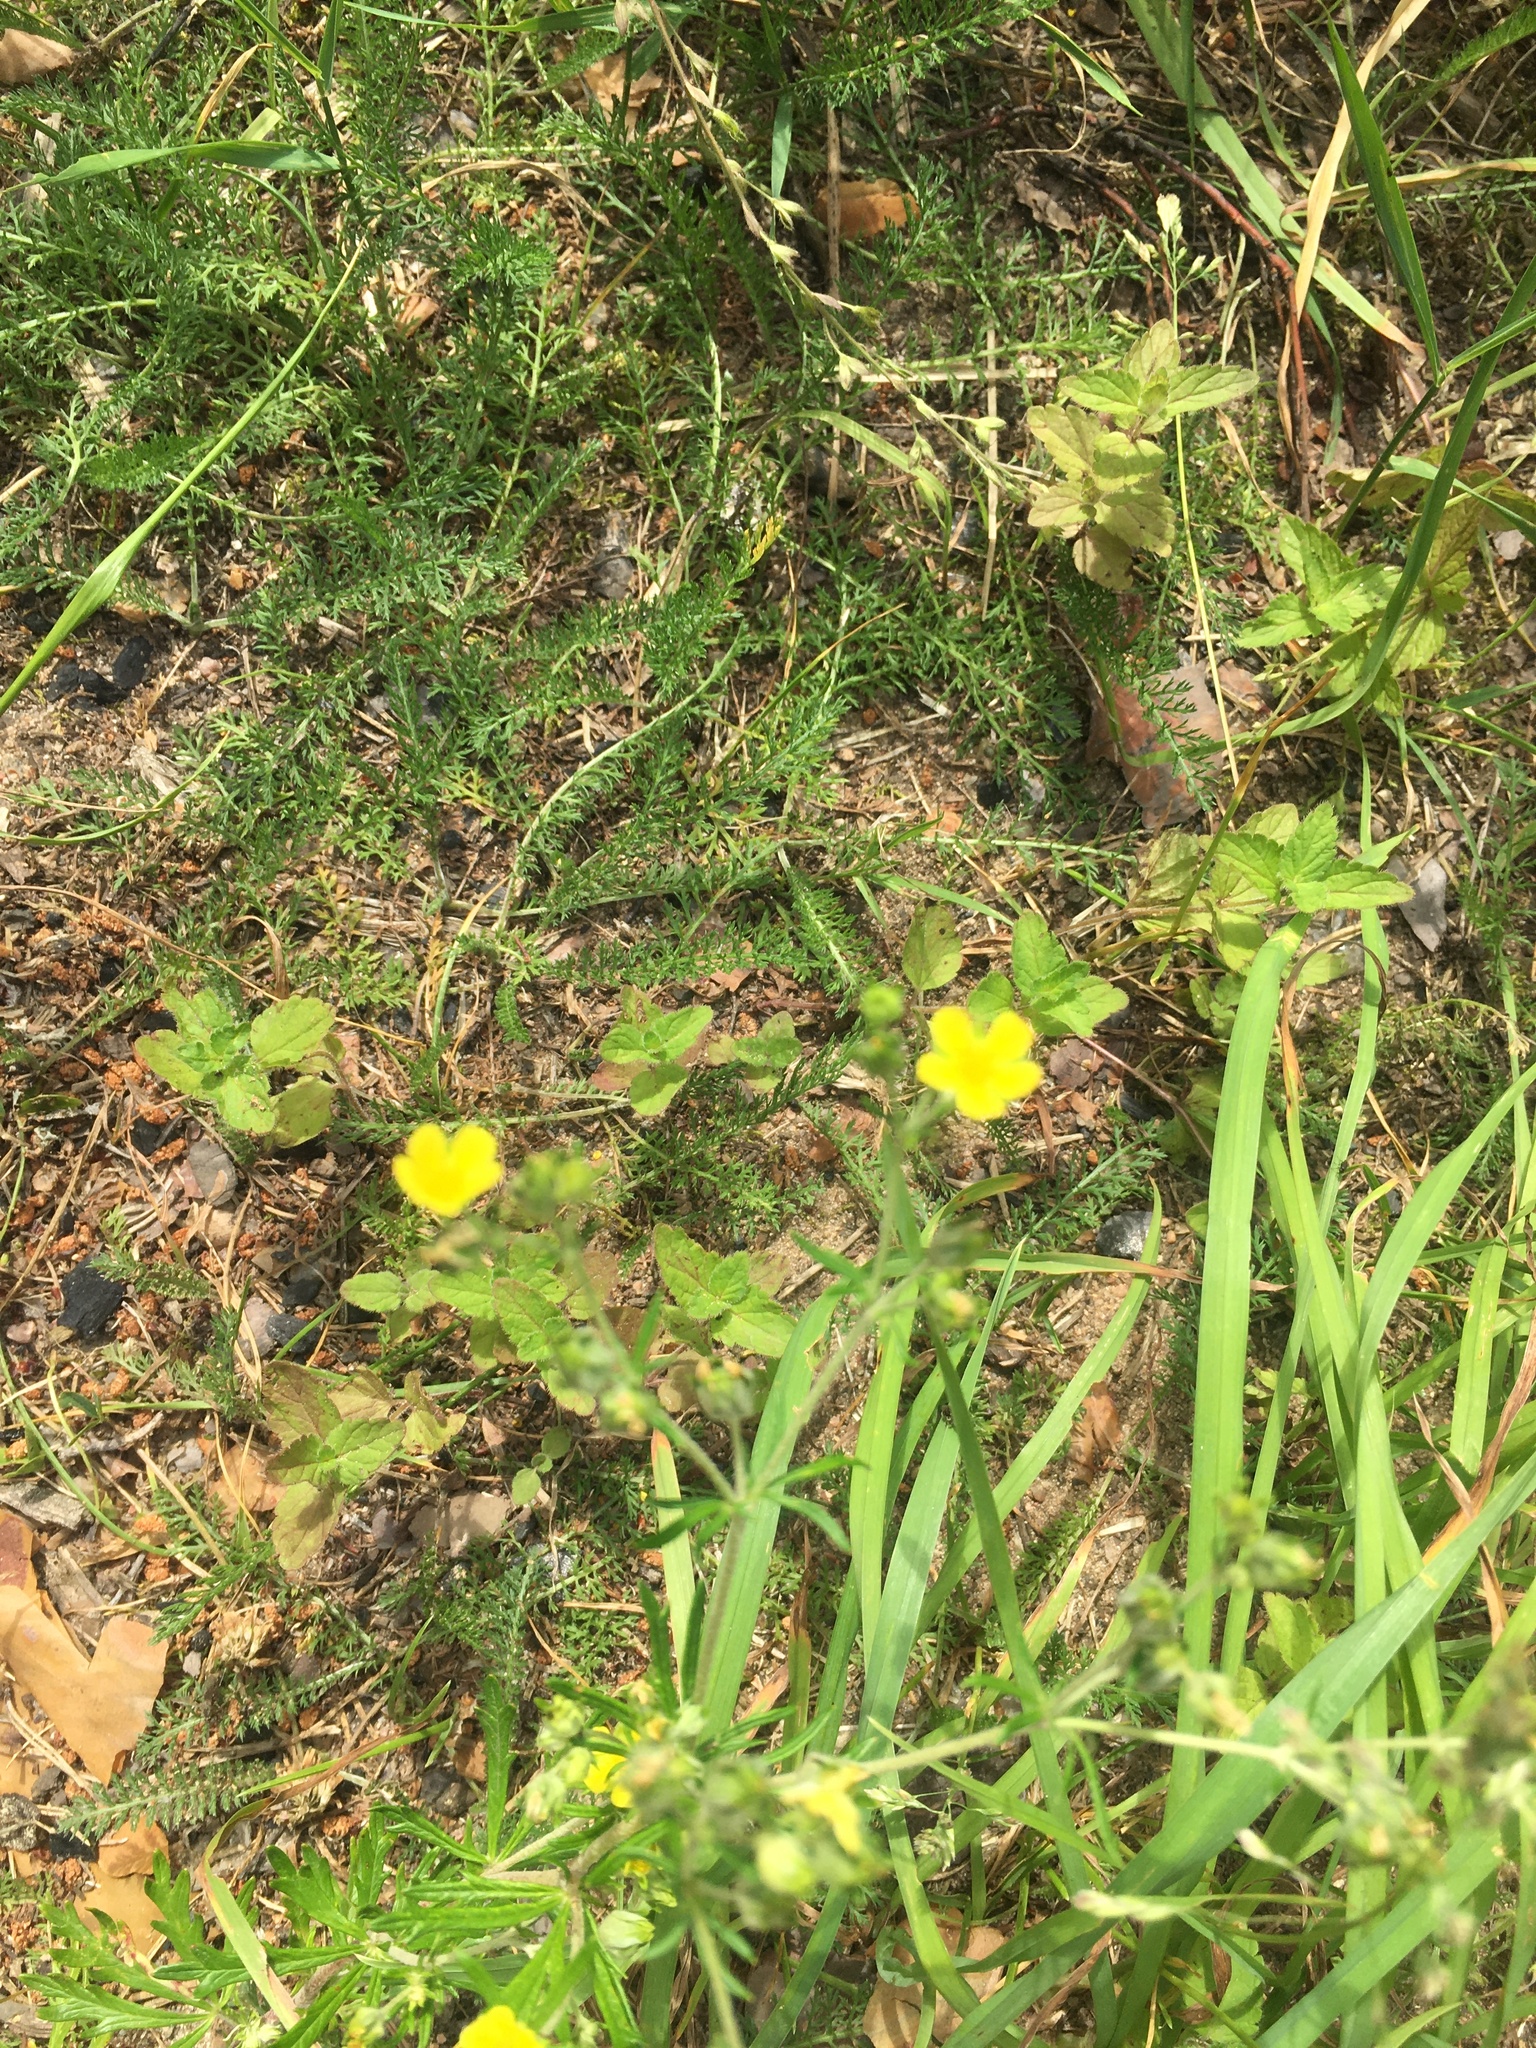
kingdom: Plantae
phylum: Tracheophyta
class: Magnoliopsida
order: Rosales
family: Rosaceae
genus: Potentilla
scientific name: Potentilla argentea
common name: Hoary cinquefoil
